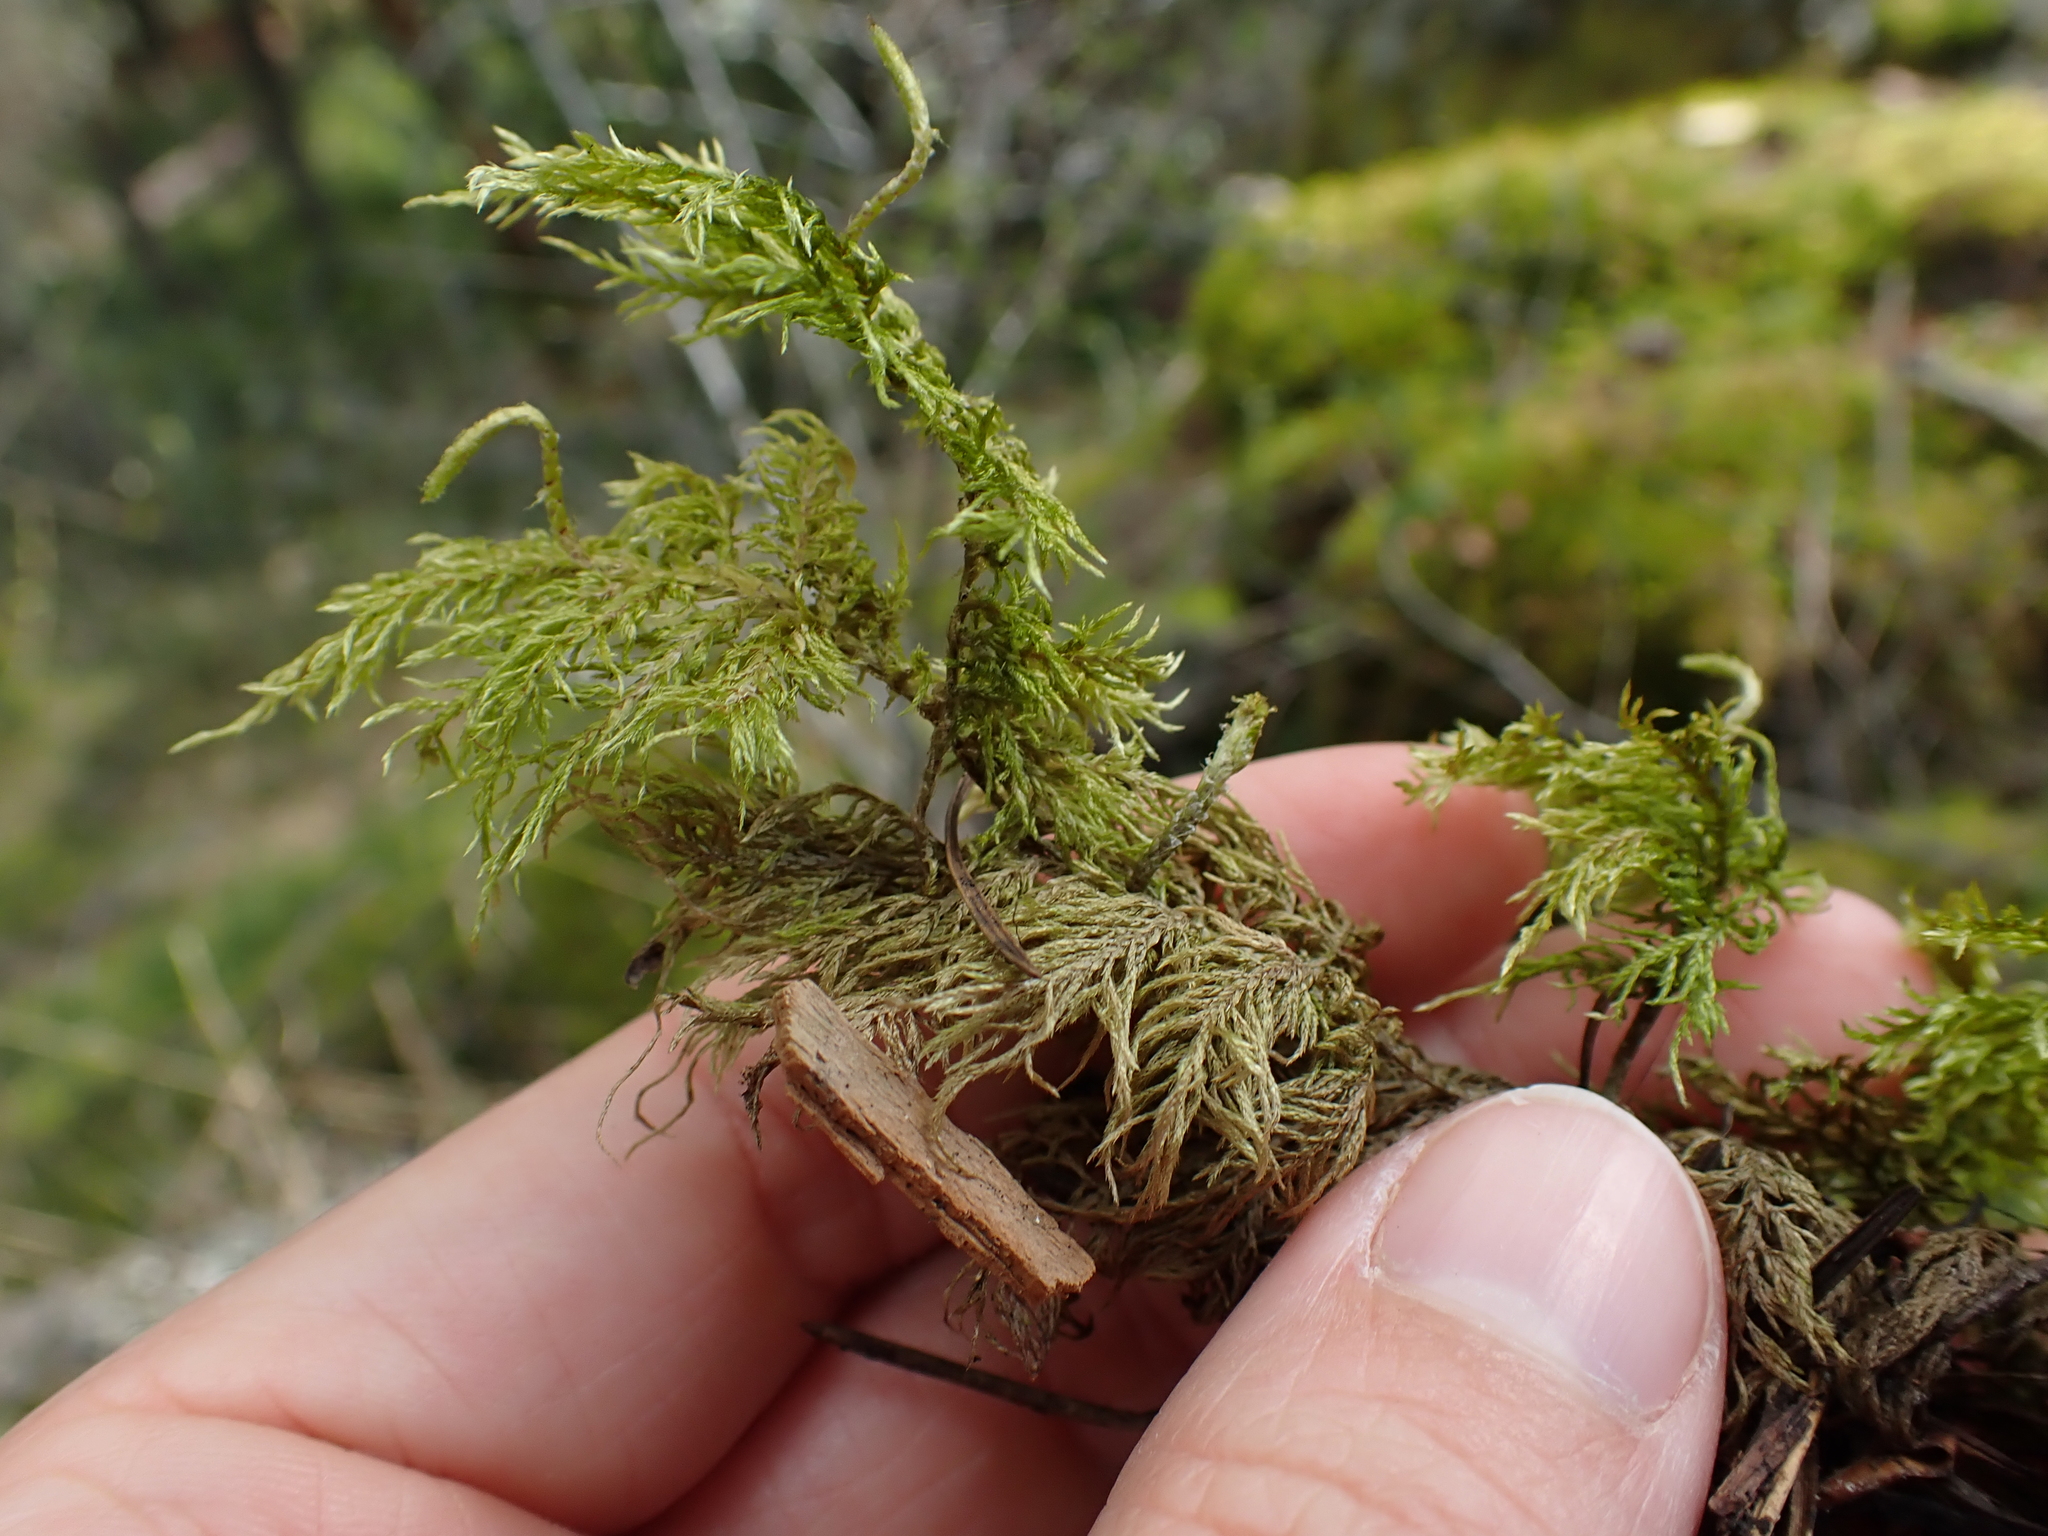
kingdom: Plantae
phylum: Bryophyta
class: Bryopsida
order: Hypnales
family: Hylocomiaceae
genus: Hylocomium
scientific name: Hylocomium splendens
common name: Stairstep moss
